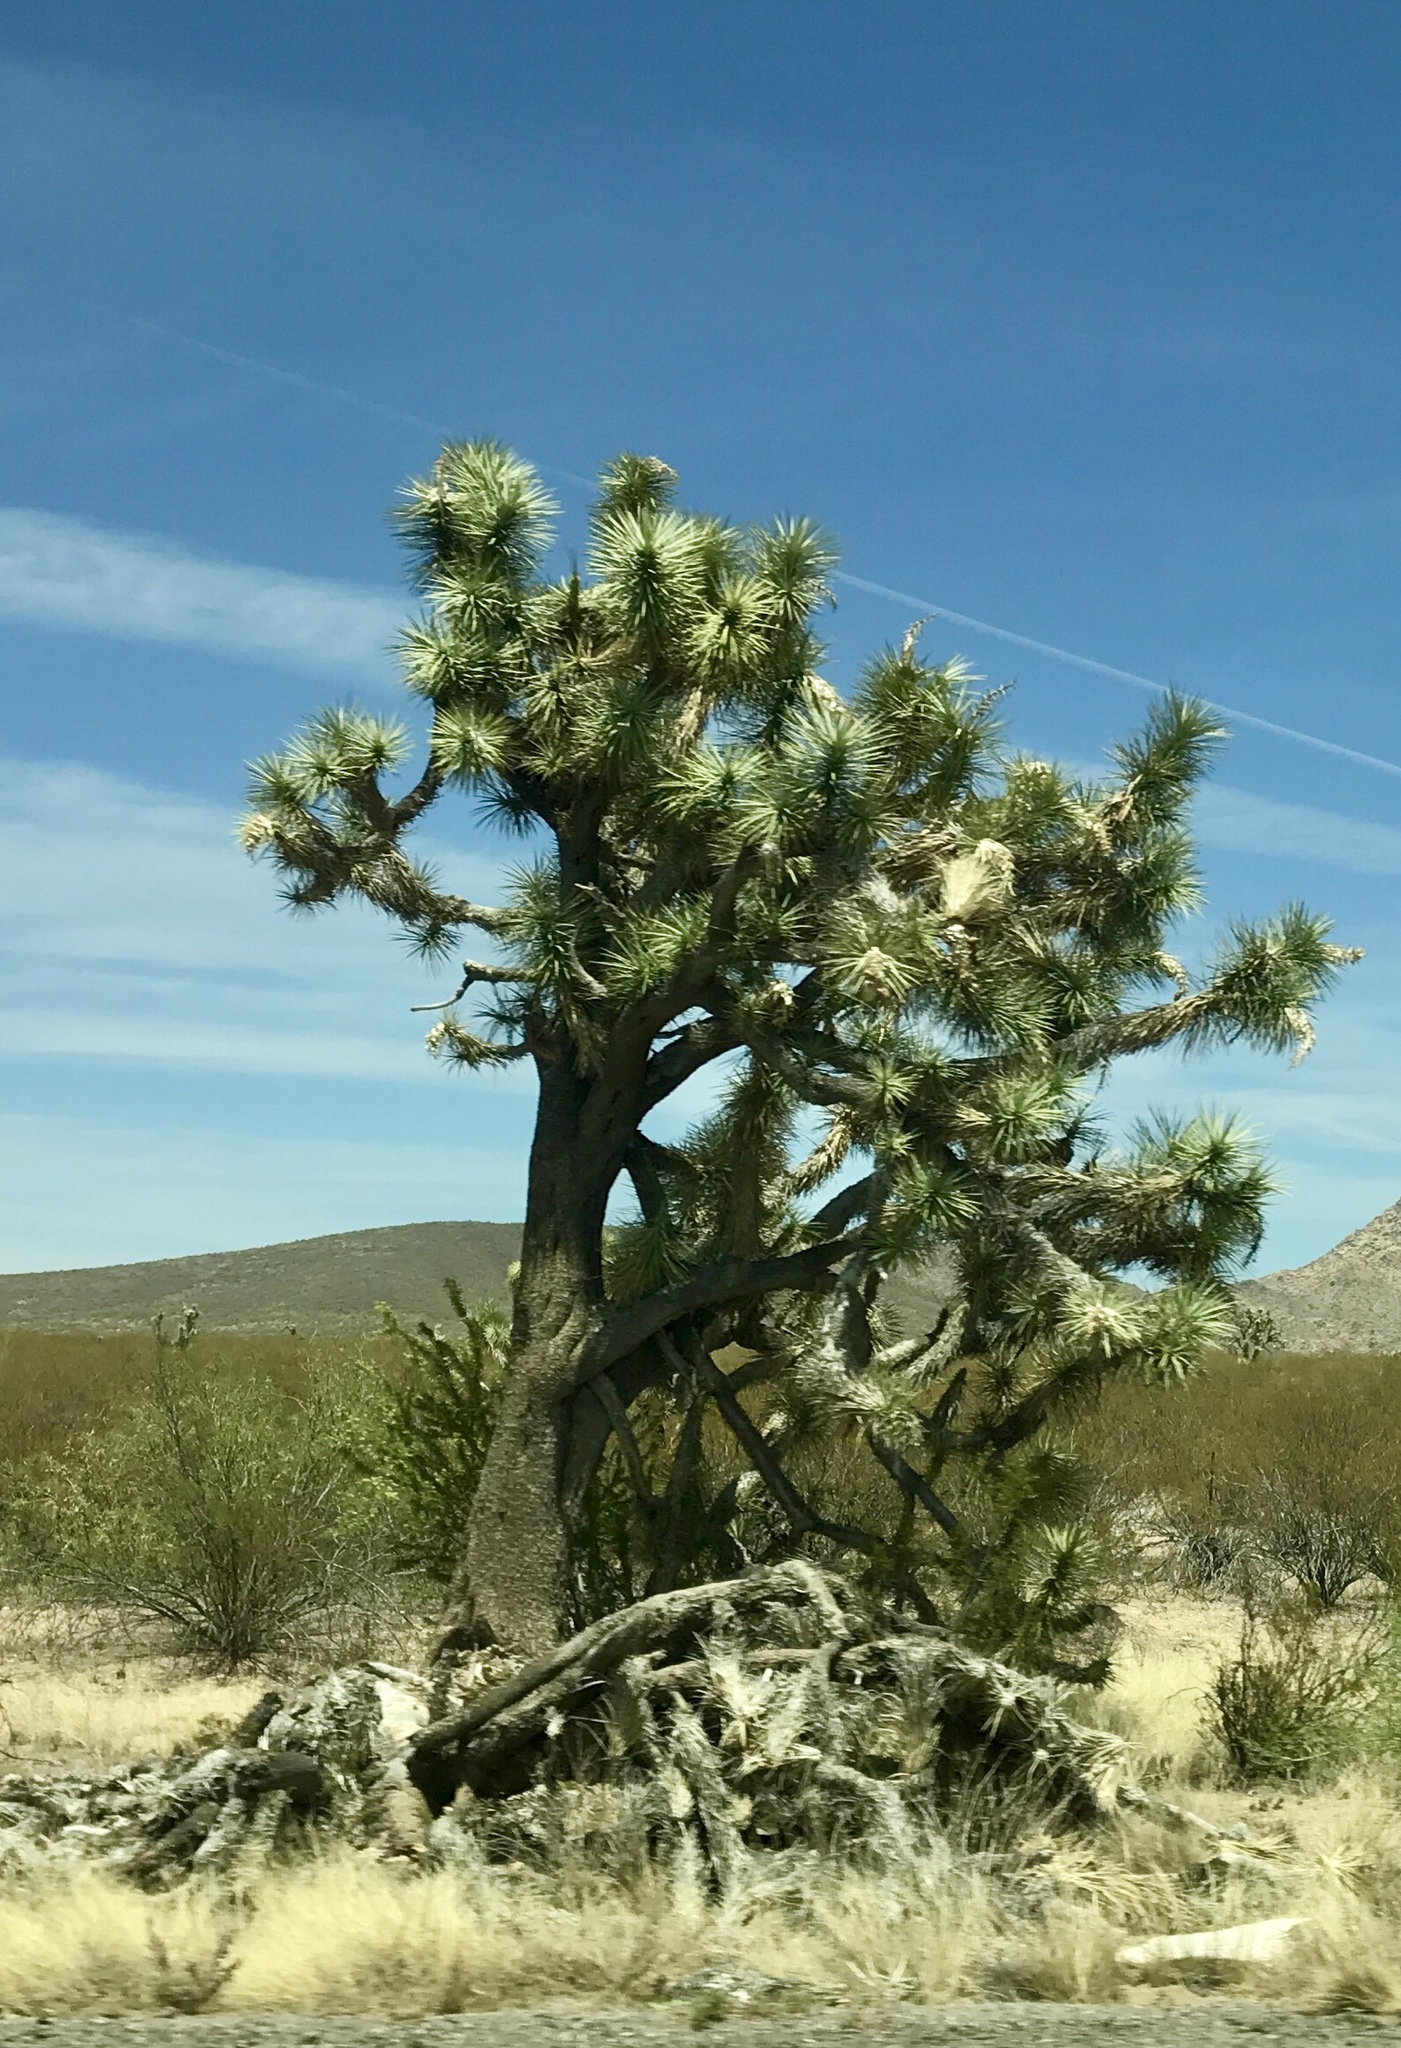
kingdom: Plantae
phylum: Tracheophyta
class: Liliopsida
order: Asparagales
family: Asparagaceae
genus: Yucca
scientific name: Yucca brevifolia
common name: Joshua tree
